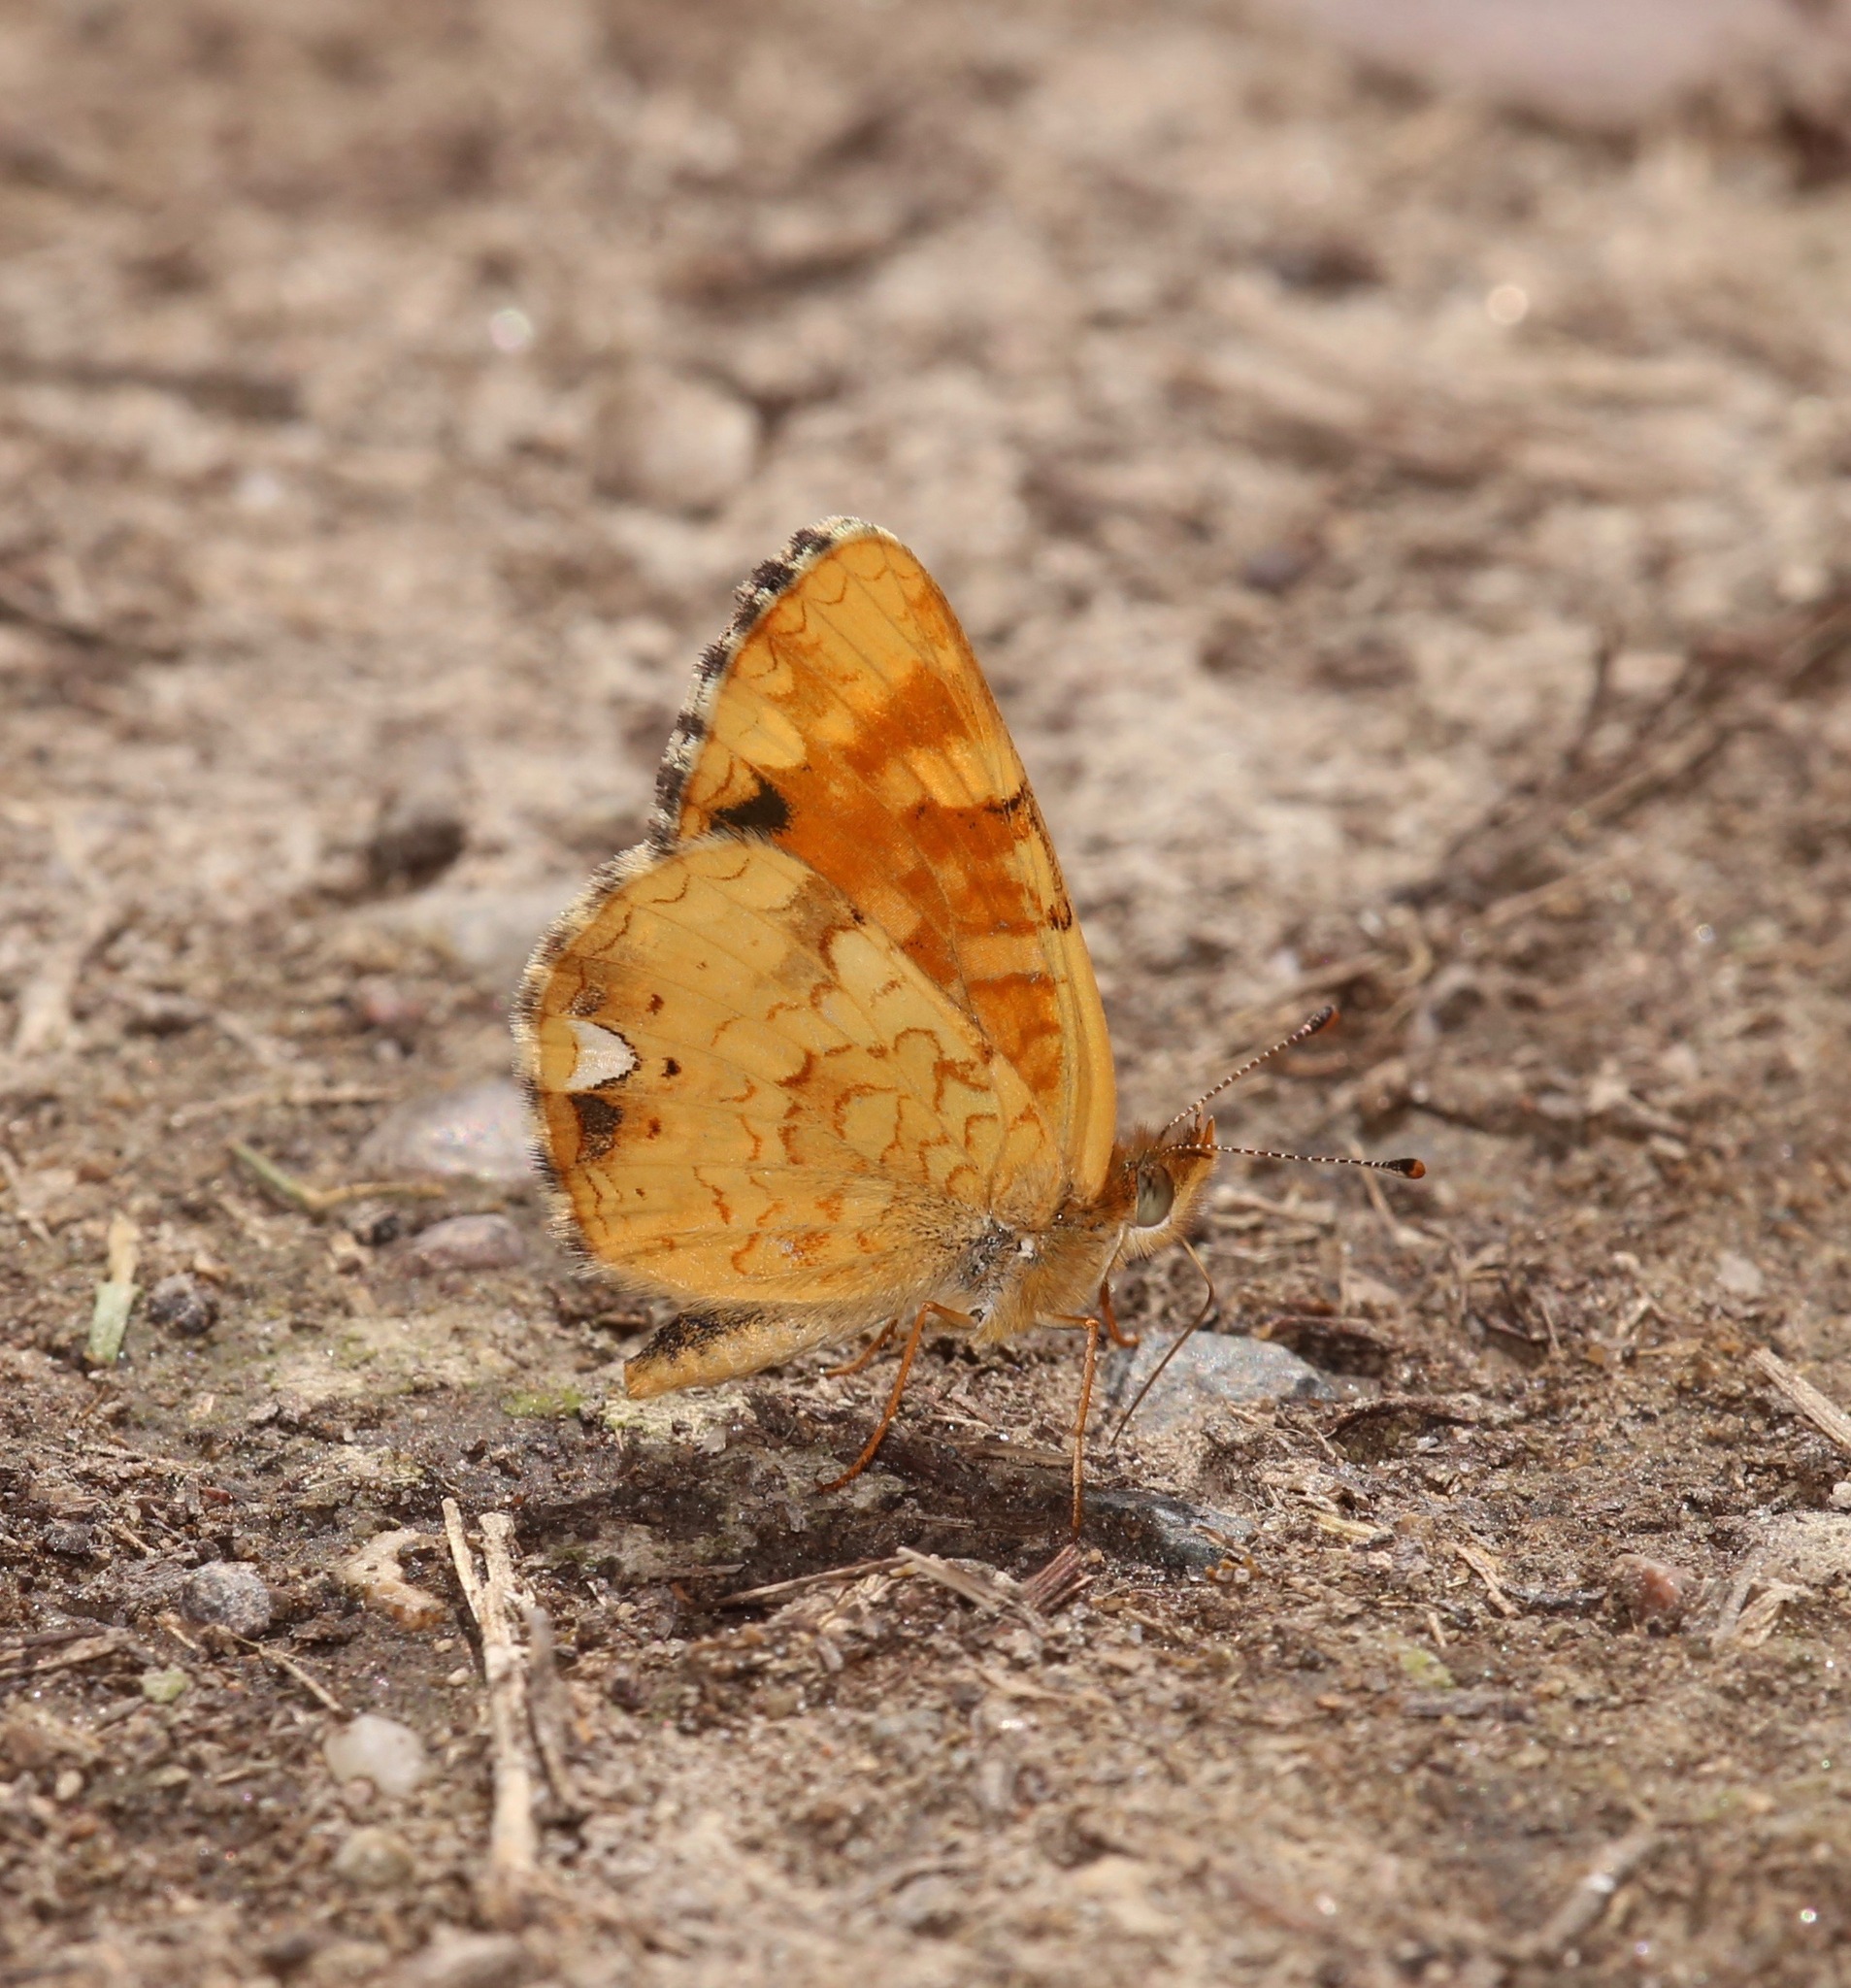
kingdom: Animalia
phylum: Arthropoda
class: Insecta
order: Lepidoptera
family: Nymphalidae
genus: Phyciodes
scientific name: Phyciodes tharos
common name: Pearl crescent
